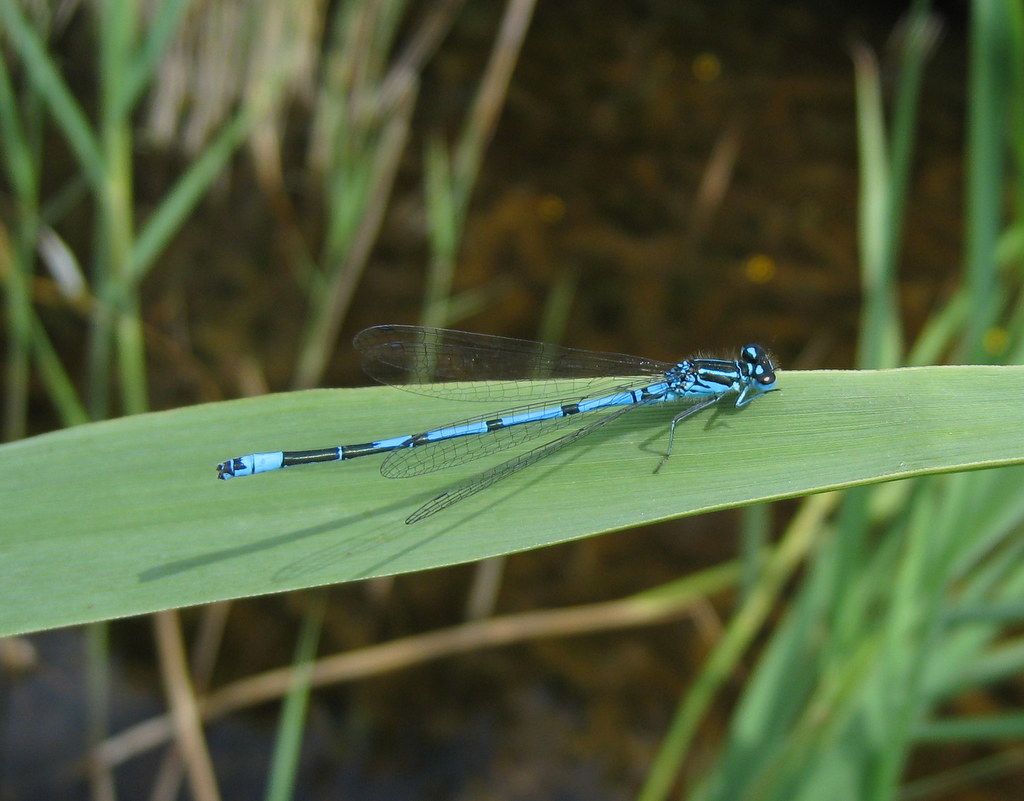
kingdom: Animalia
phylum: Arthropoda
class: Insecta
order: Odonata
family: Coenagrionidae
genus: Coenagrion
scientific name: Coenagrion puella
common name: Azure damselfly
